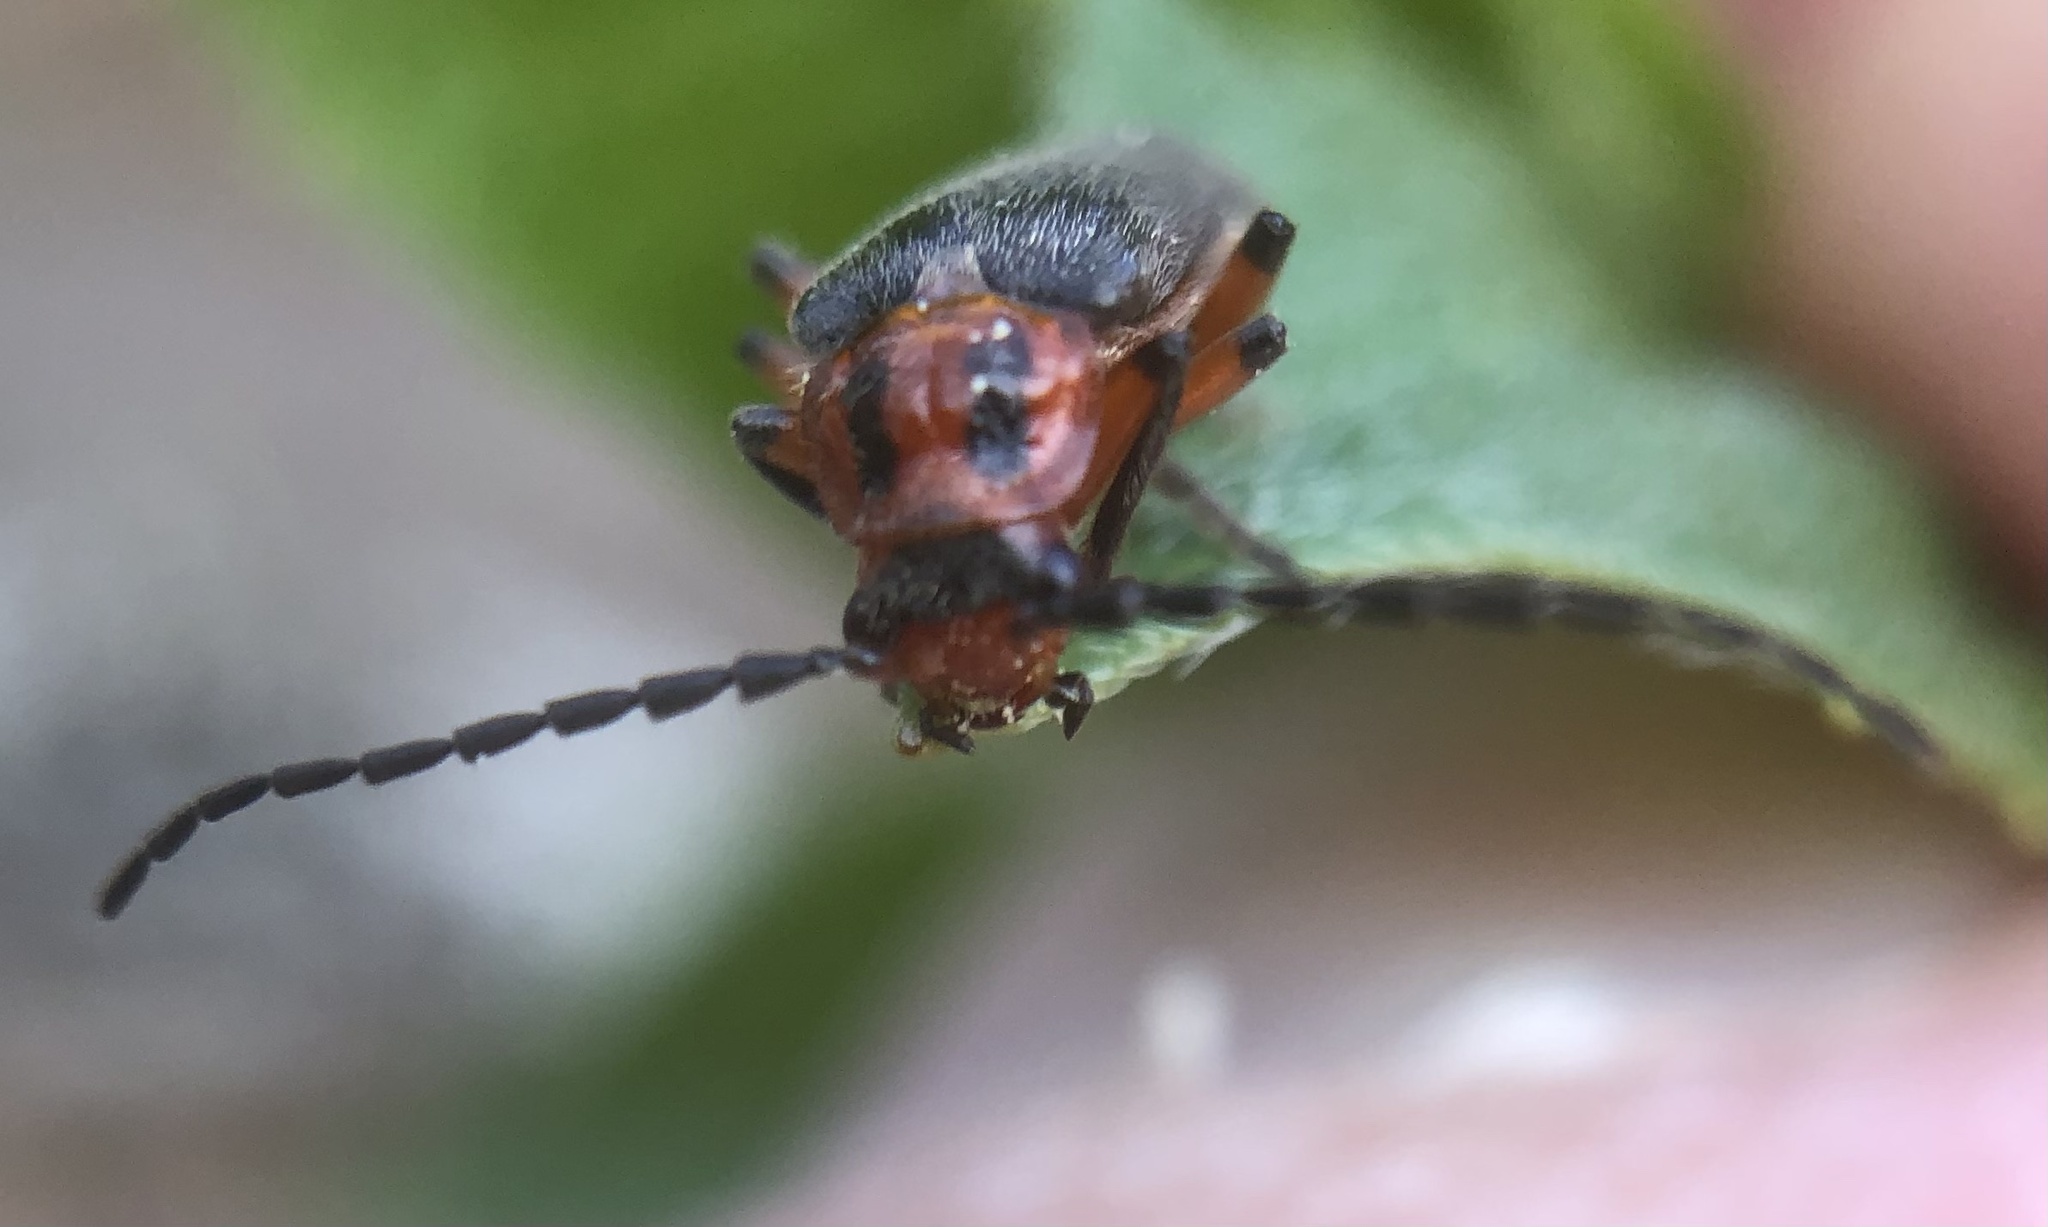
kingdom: Animalia
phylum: Arthropoda
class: Insecta
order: Coleoptera
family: Cantharidae
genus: Atalantycha
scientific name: Atalantycha bilineata
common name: Two-lined leatherwing
